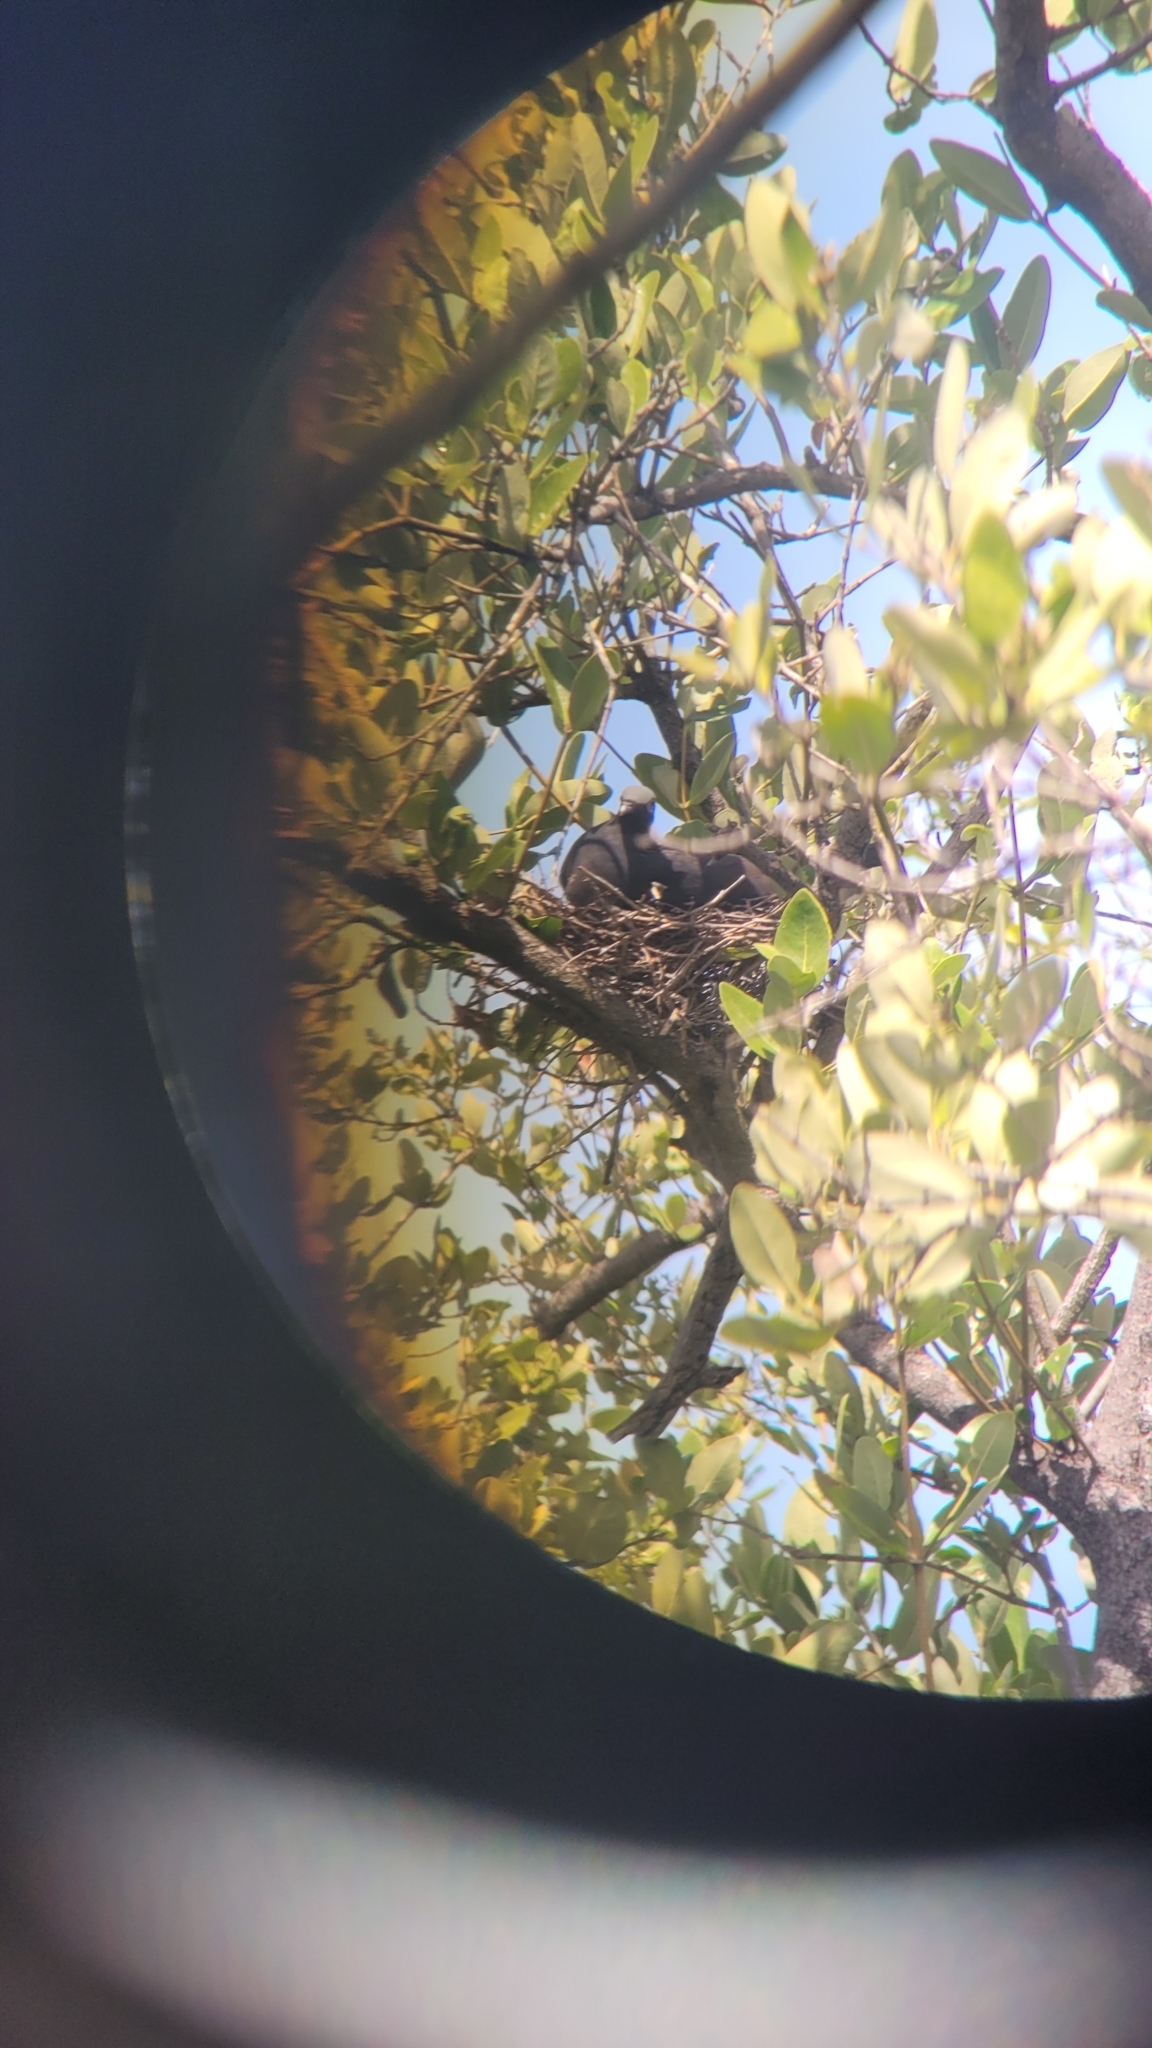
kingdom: Animalia
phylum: Chordata
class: Aves
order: Columbiformes
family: Columbidae
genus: Patagioenas
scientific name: Patagioenas leucocephala
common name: White-crowned pigeon
